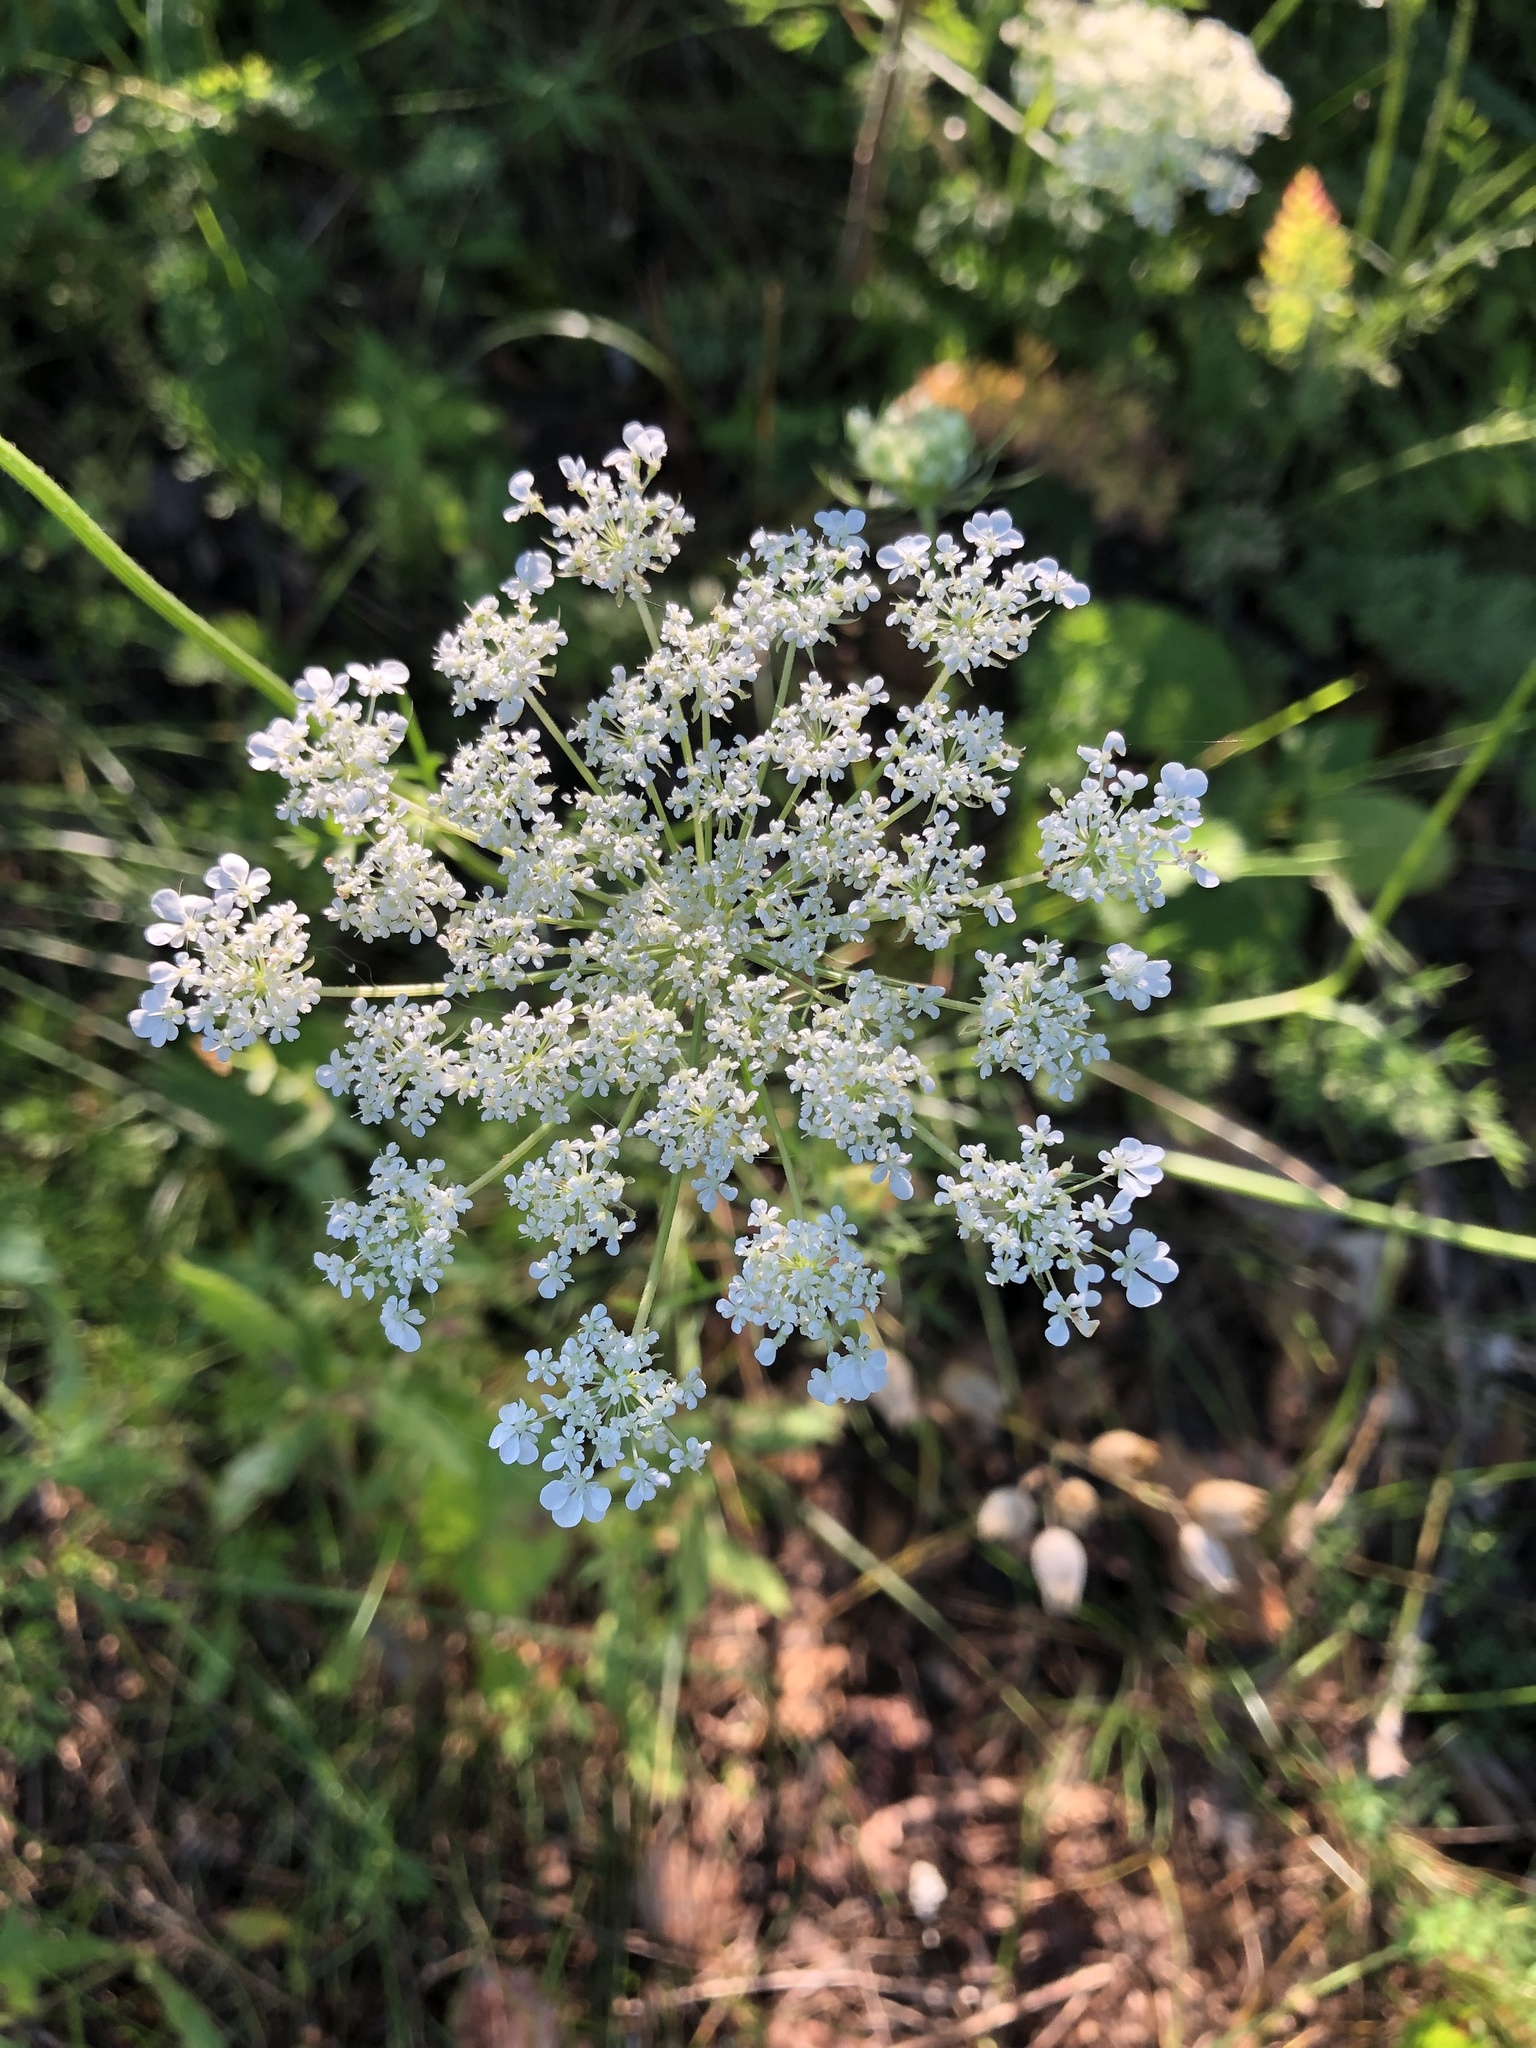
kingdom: Plantae
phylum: Tracheophyta
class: Magnoliopsida
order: Apiales
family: Apiaceae
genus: Daucus
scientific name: Daucus carota
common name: Wild carrot
